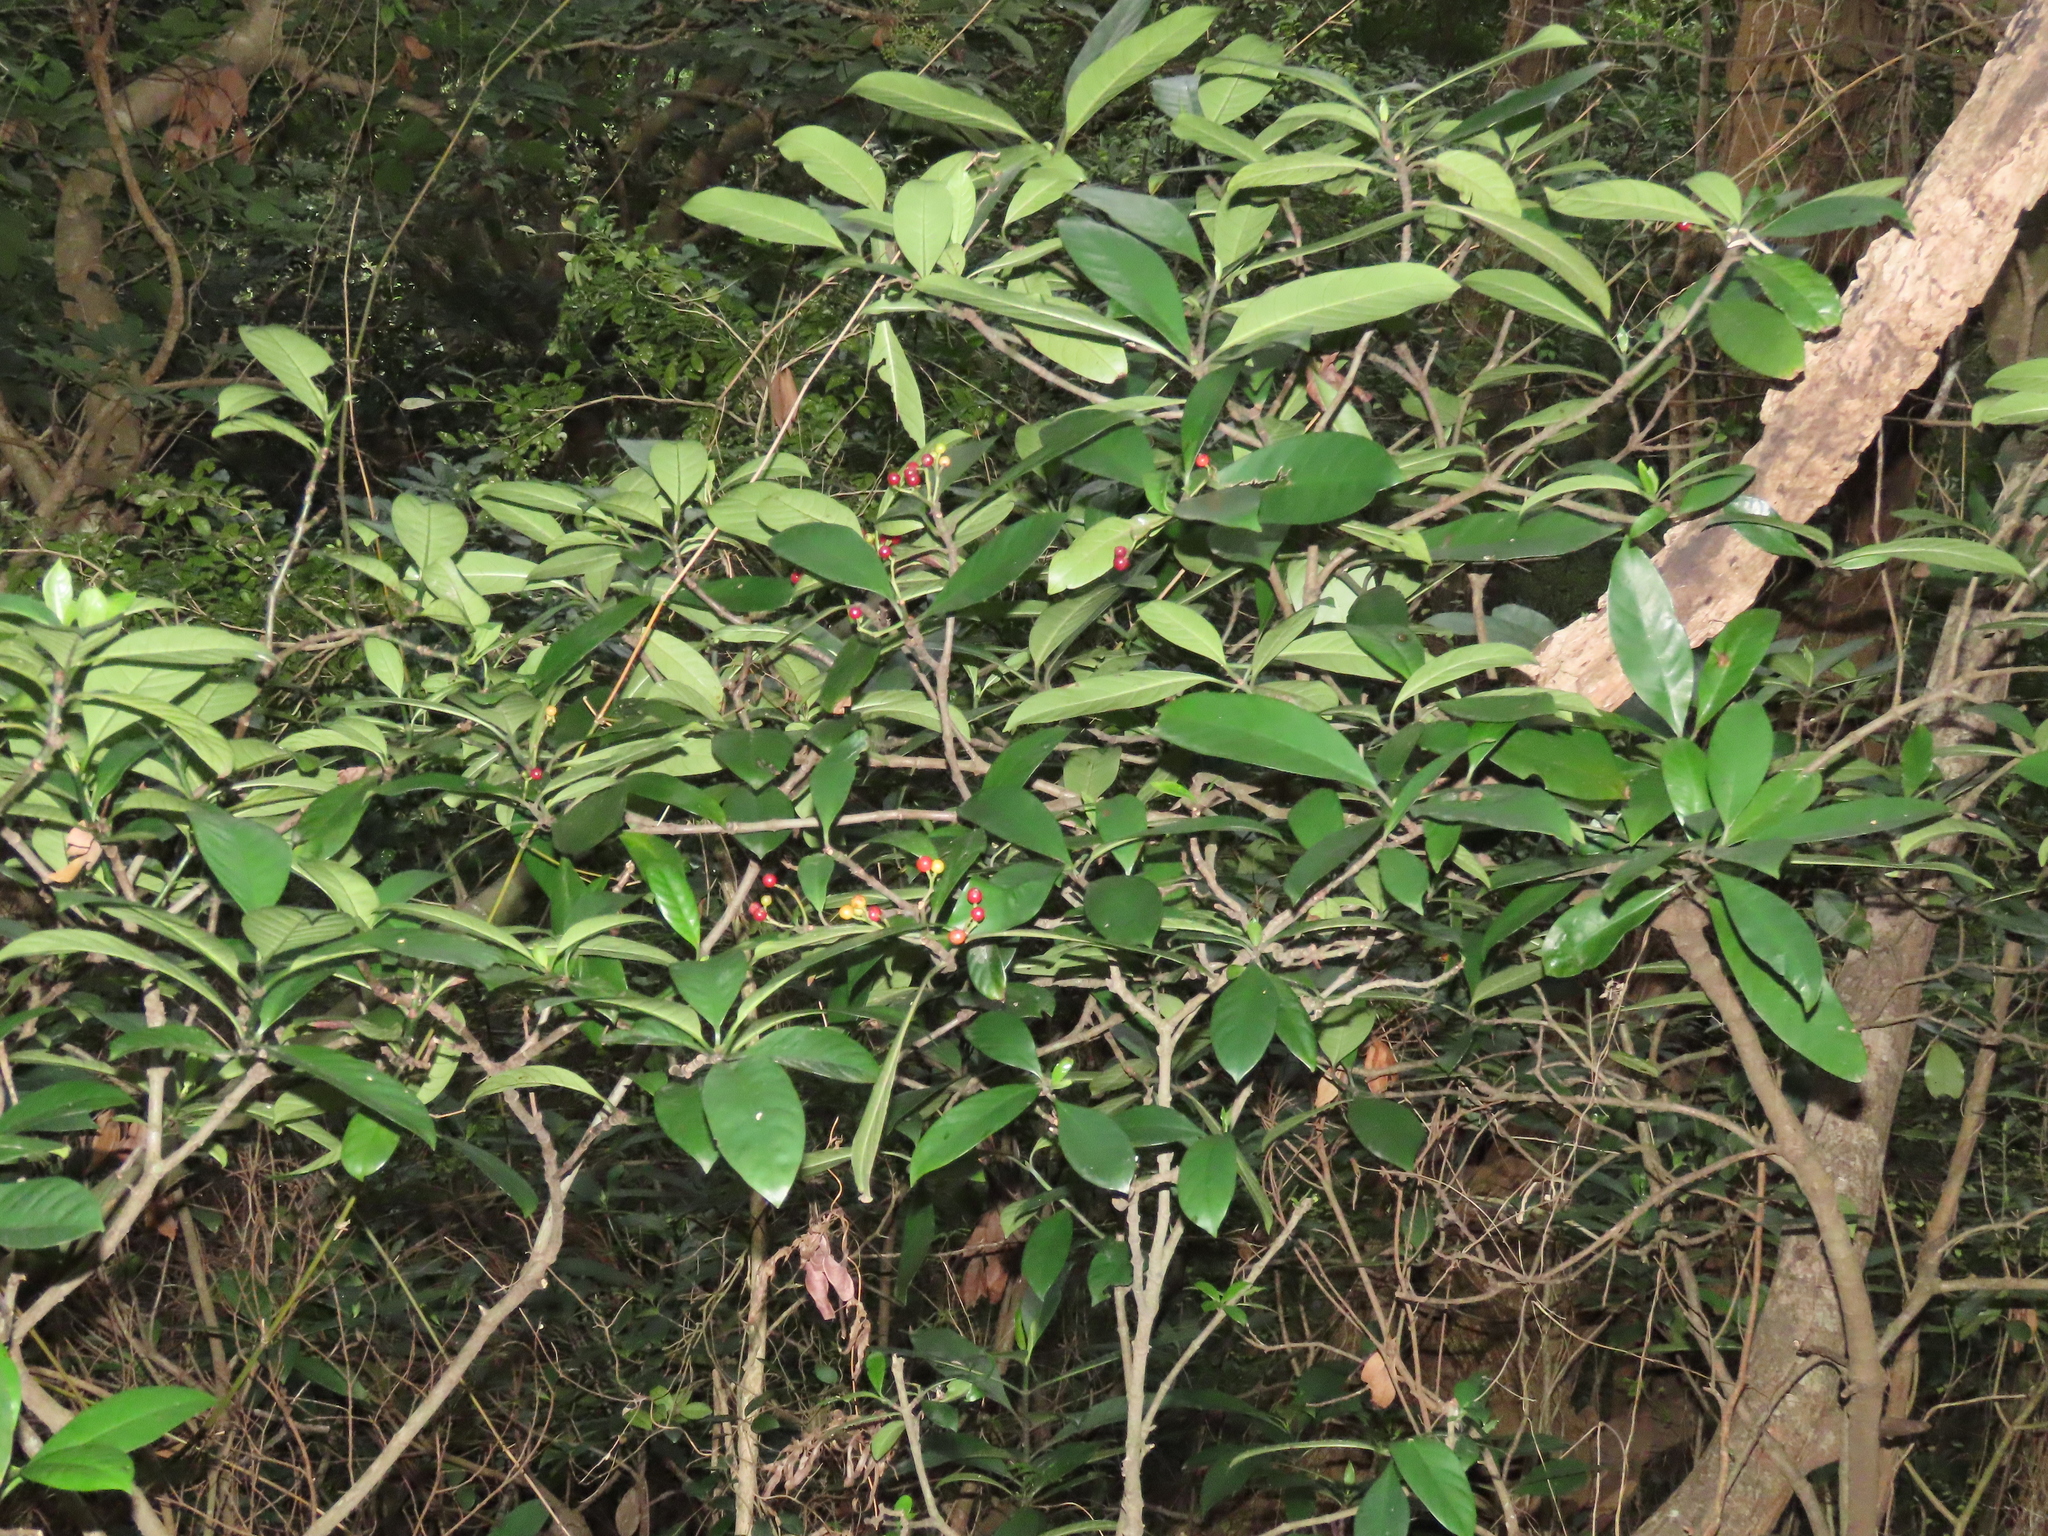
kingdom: Plantae
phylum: Tracheophyta
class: Magnoliopsida
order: Gentianales
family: Rubiaceae
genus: Psychotria
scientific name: Psychotria asiatica
